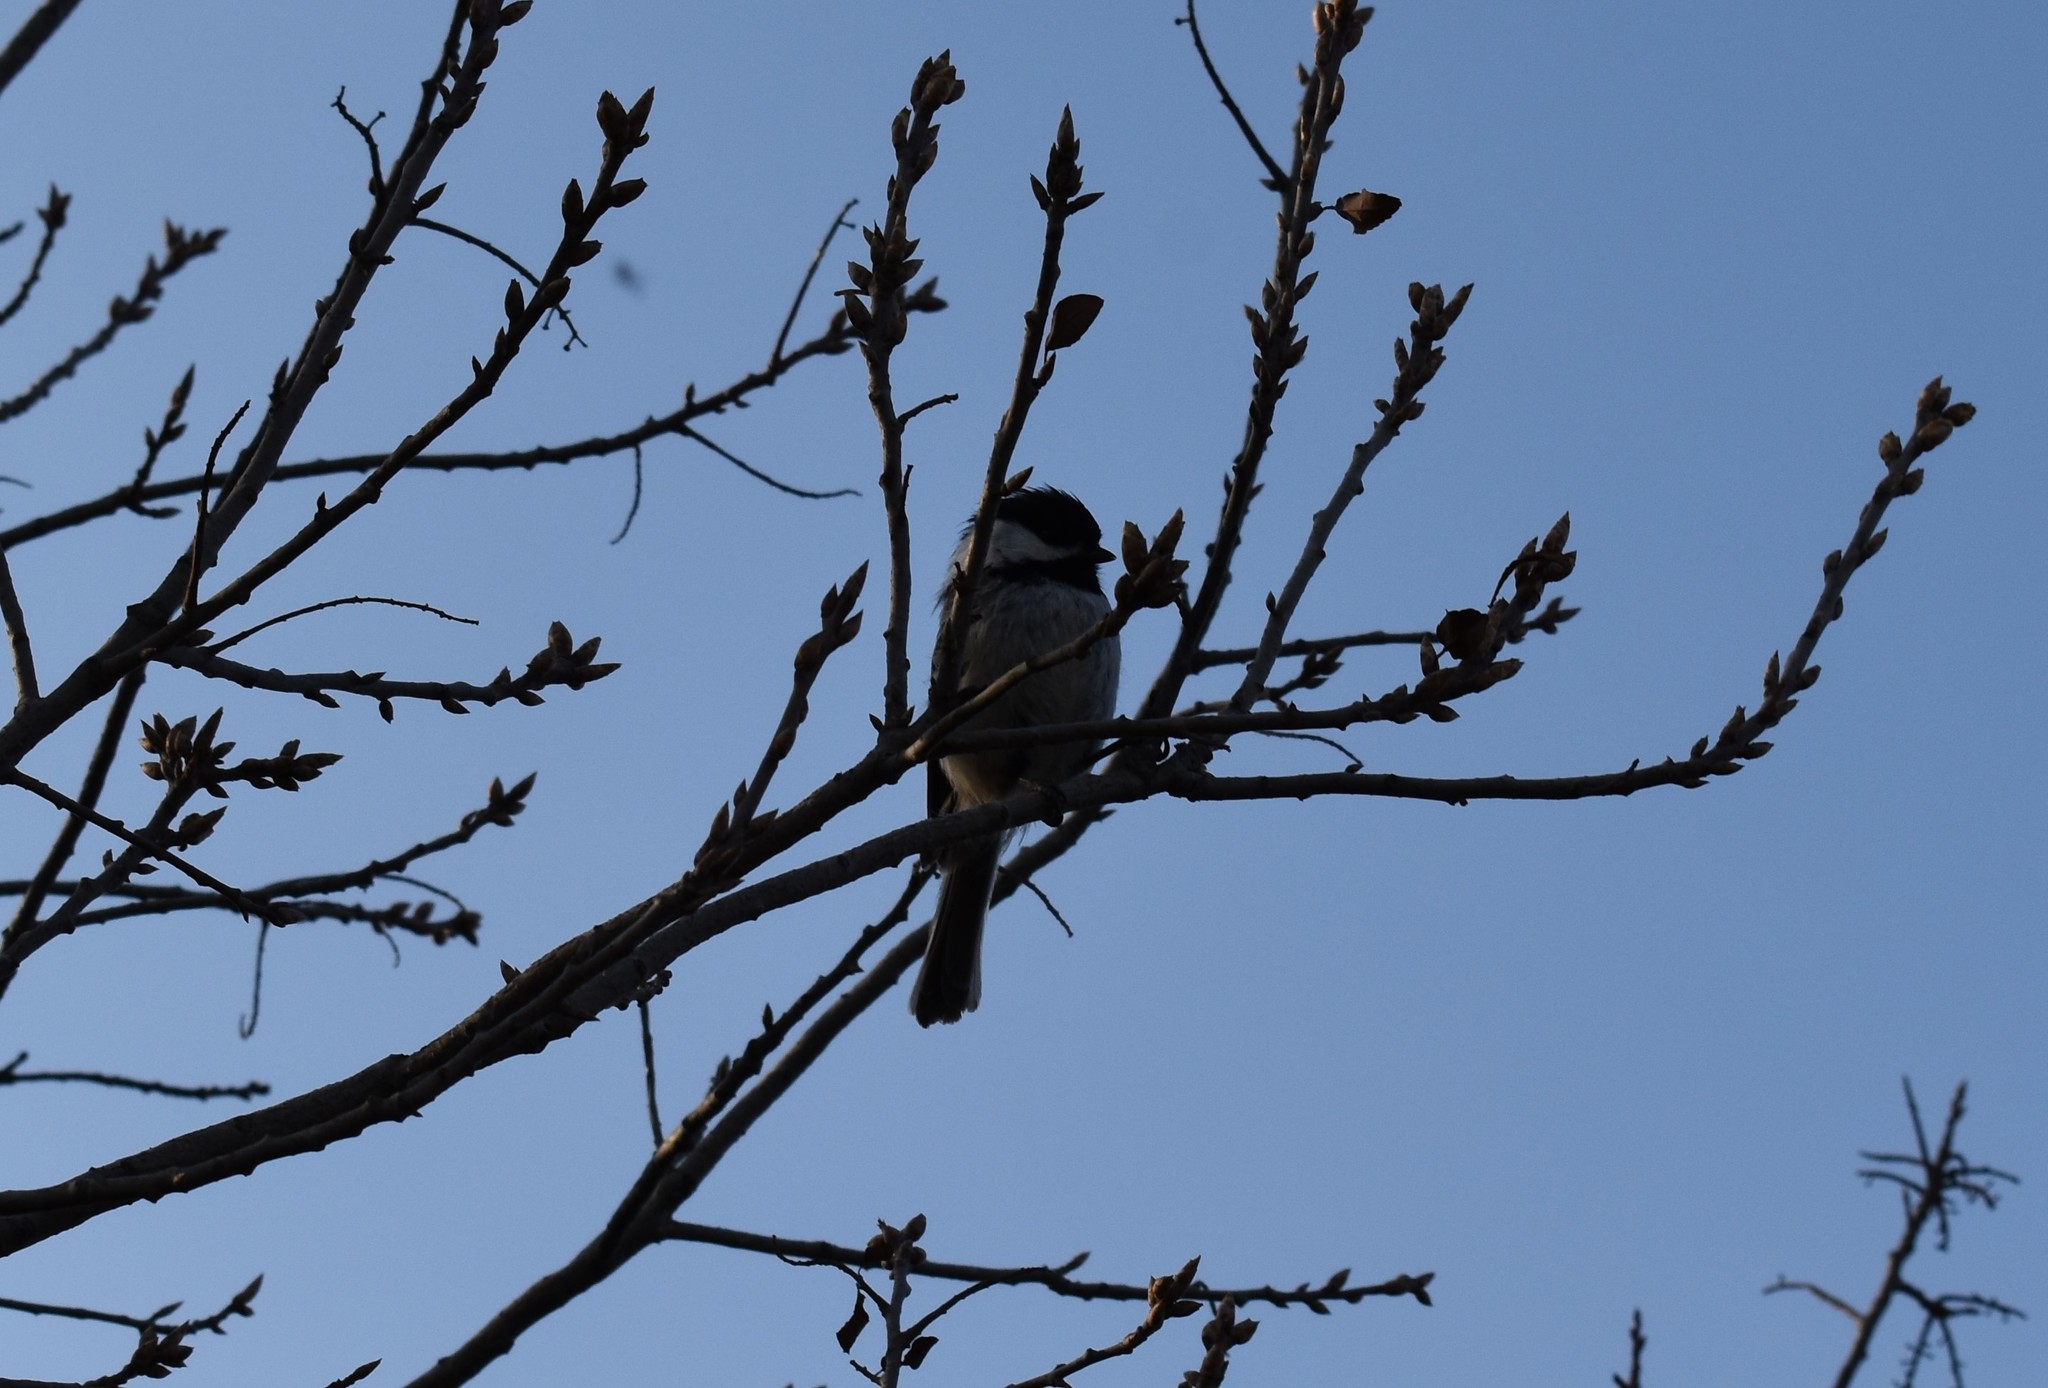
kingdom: Animalia
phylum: Chordata
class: Aves
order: Passeriformes
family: Paridae
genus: Poecile
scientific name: Poecile atricapillus
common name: Black-capped chickadee
